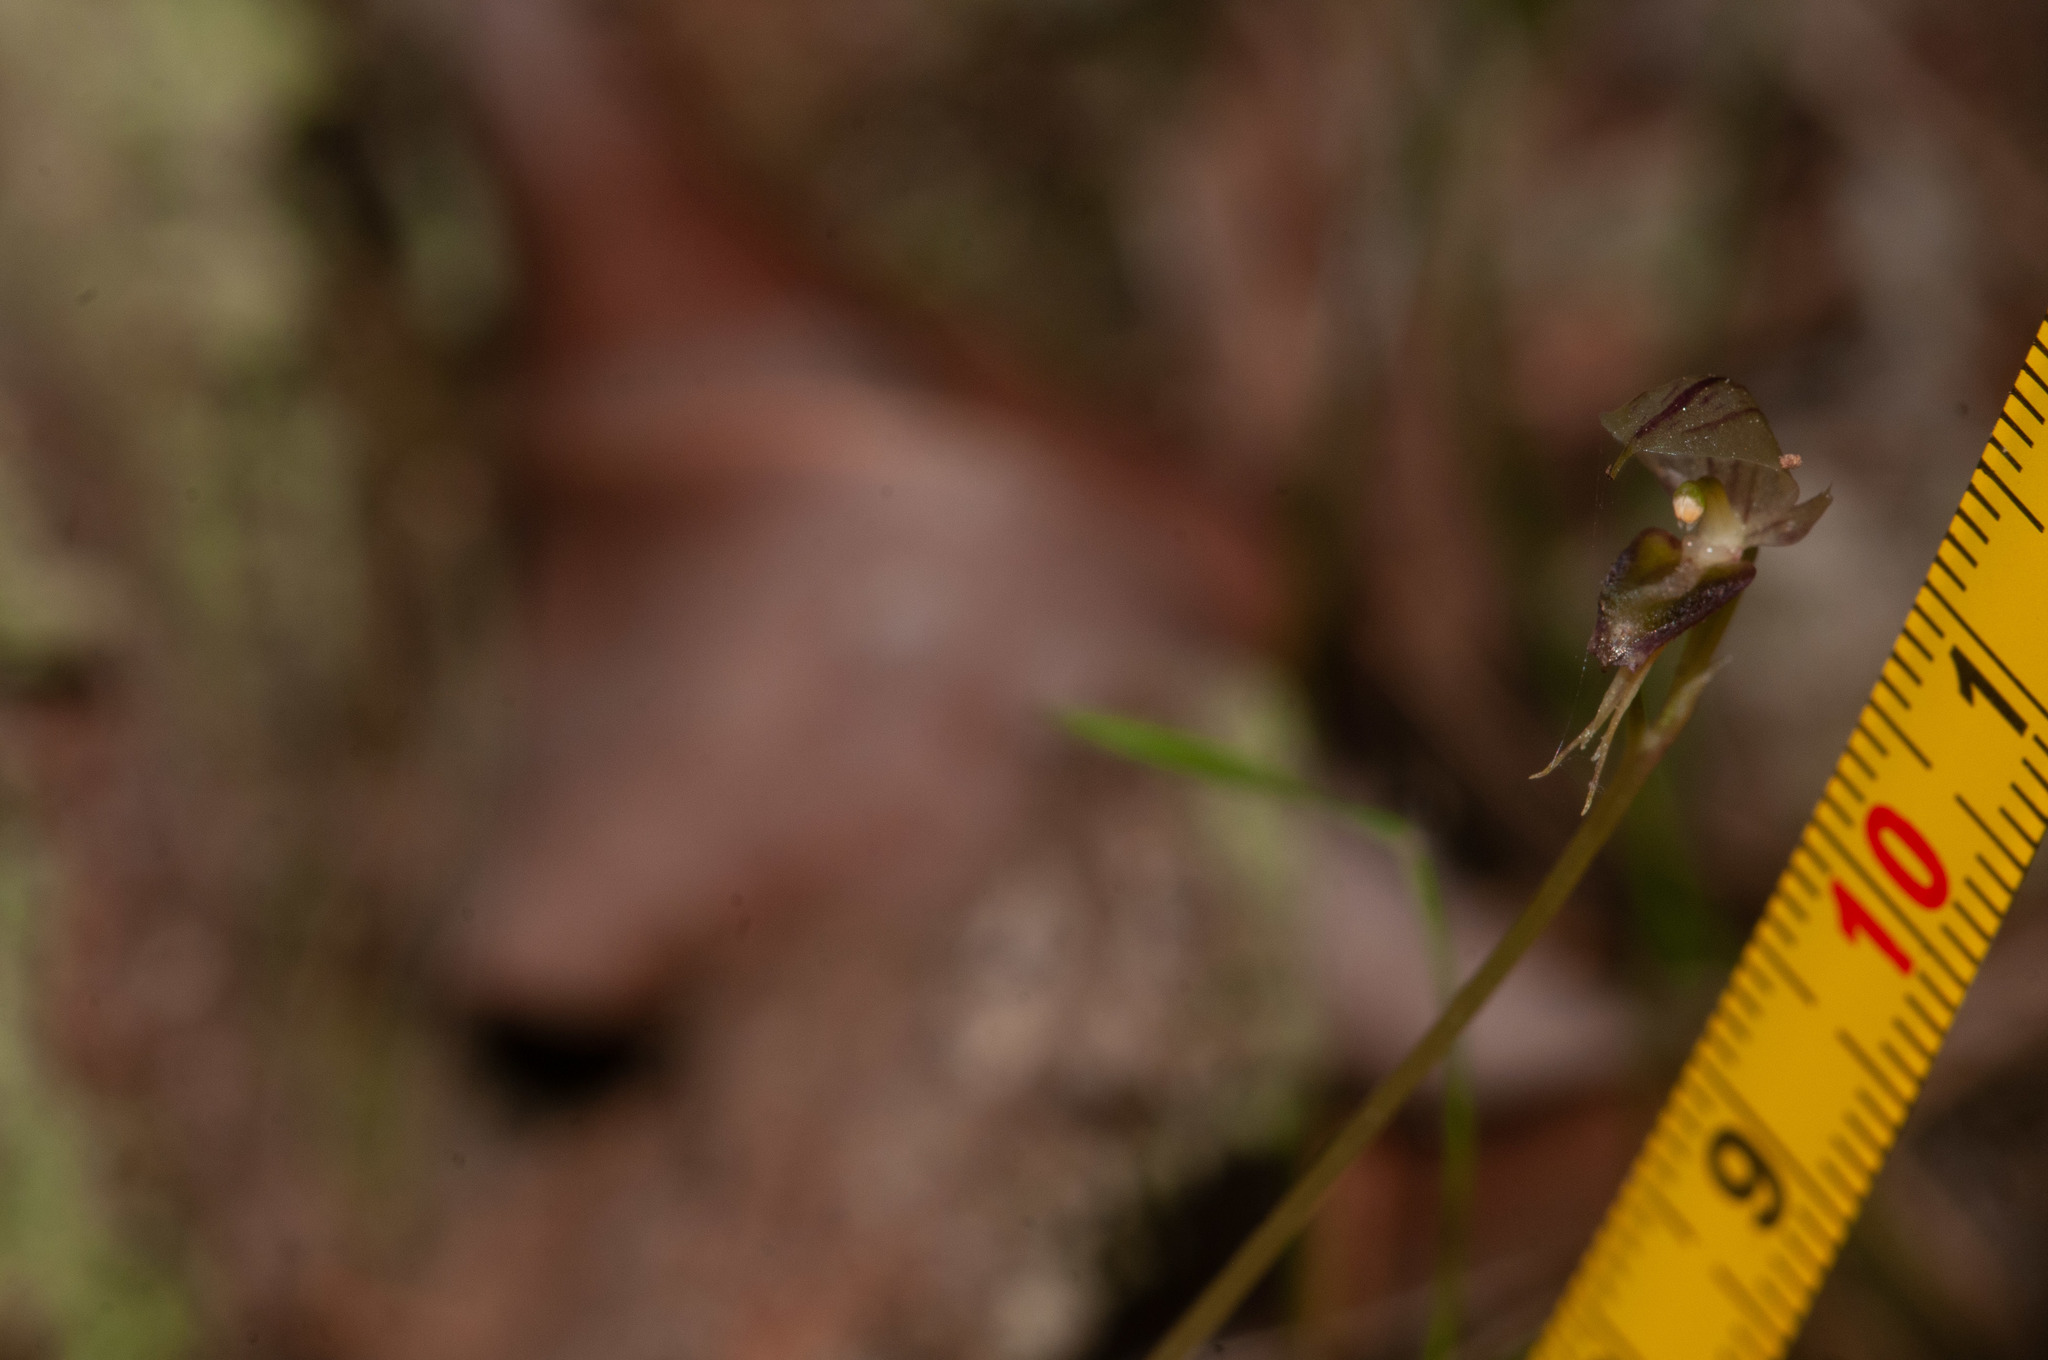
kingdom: Plantae
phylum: Tracheophyta
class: Liliopsida
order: Asparagales
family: Orchidaceae
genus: Acianthus
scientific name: Acianthus fornicatus
